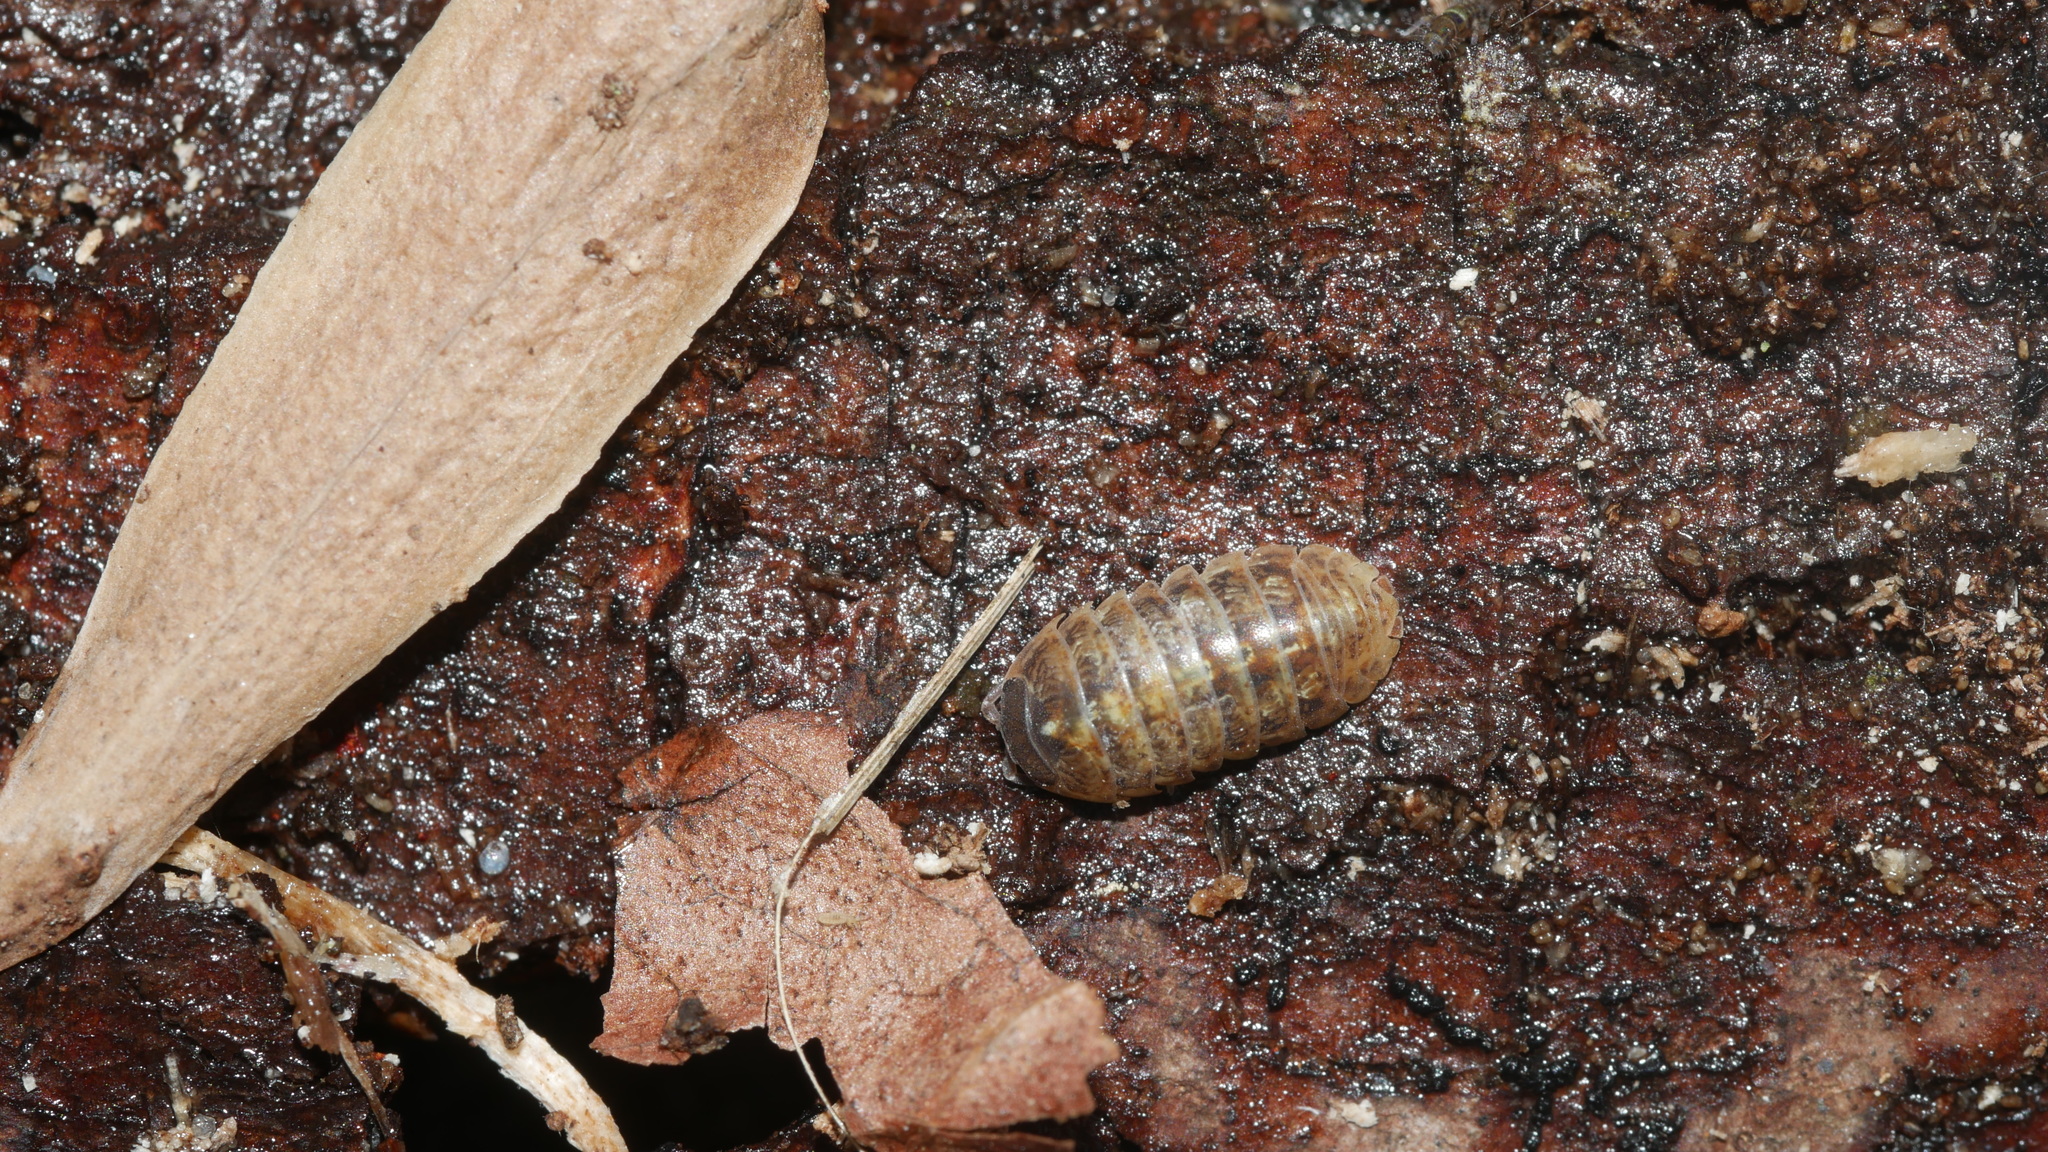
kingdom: Animalia
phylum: Arthropoda
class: Malacostraca
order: Isopoda
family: Armadillidiidae
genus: Armadillidium
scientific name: Armadillidium vulgare
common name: Common pill woodlouse
